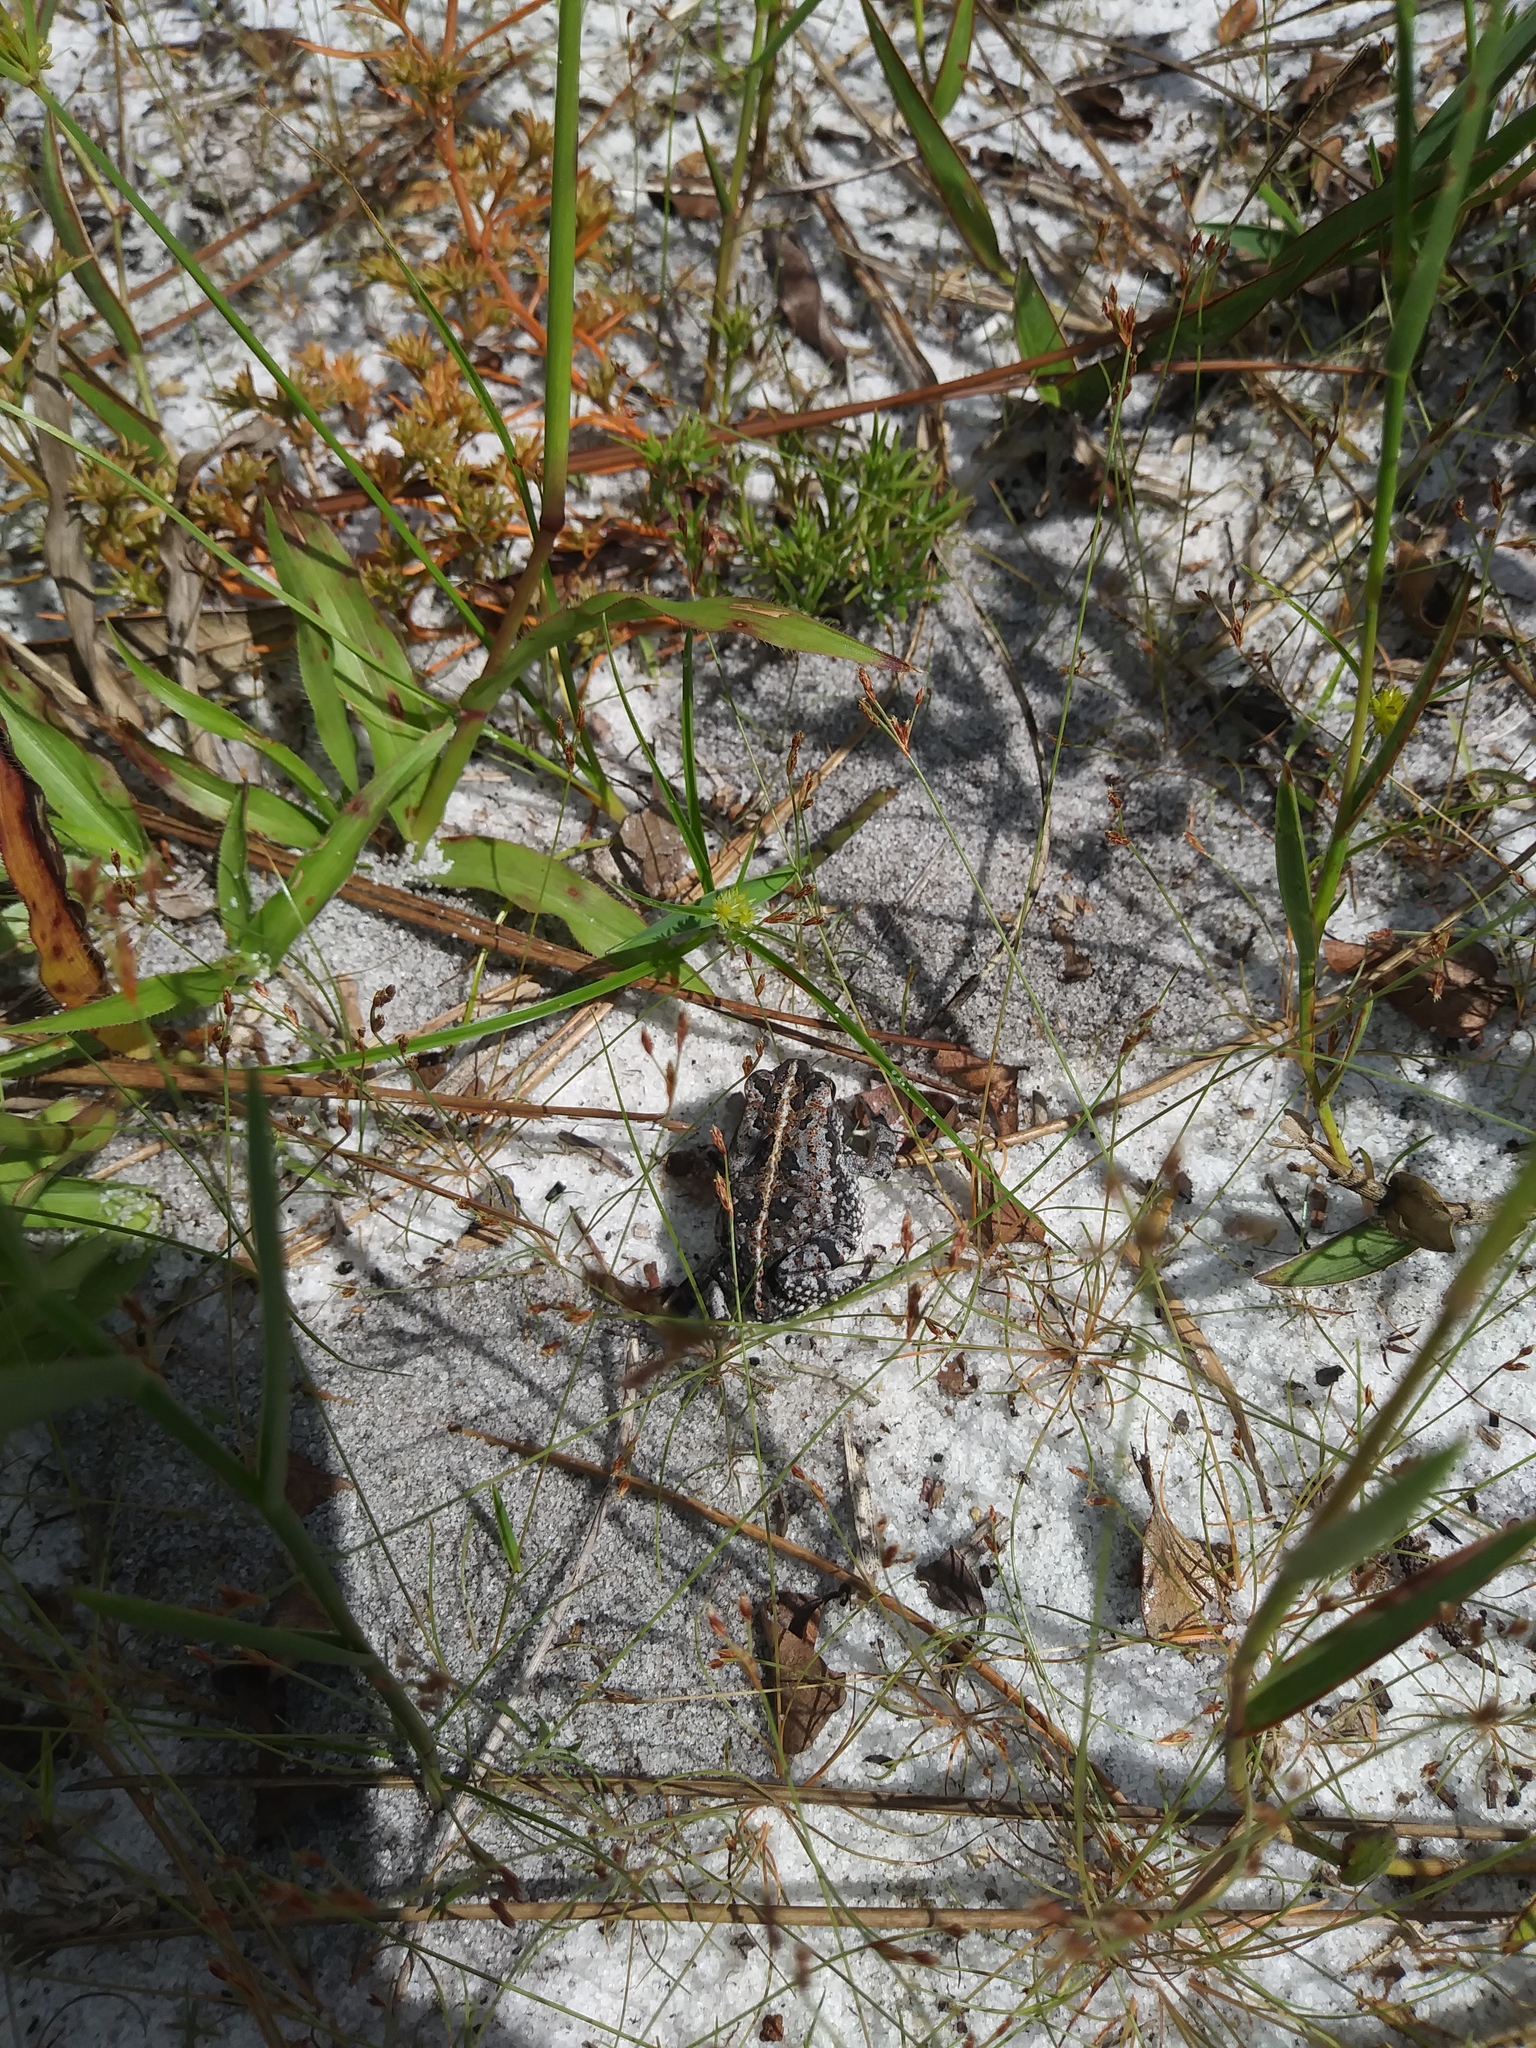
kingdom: Animalia
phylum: Chordata
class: Amphibia
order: Anura
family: Bufonidae
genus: Anaxyrus
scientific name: Anaxyrus quercicus
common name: Oak toad
